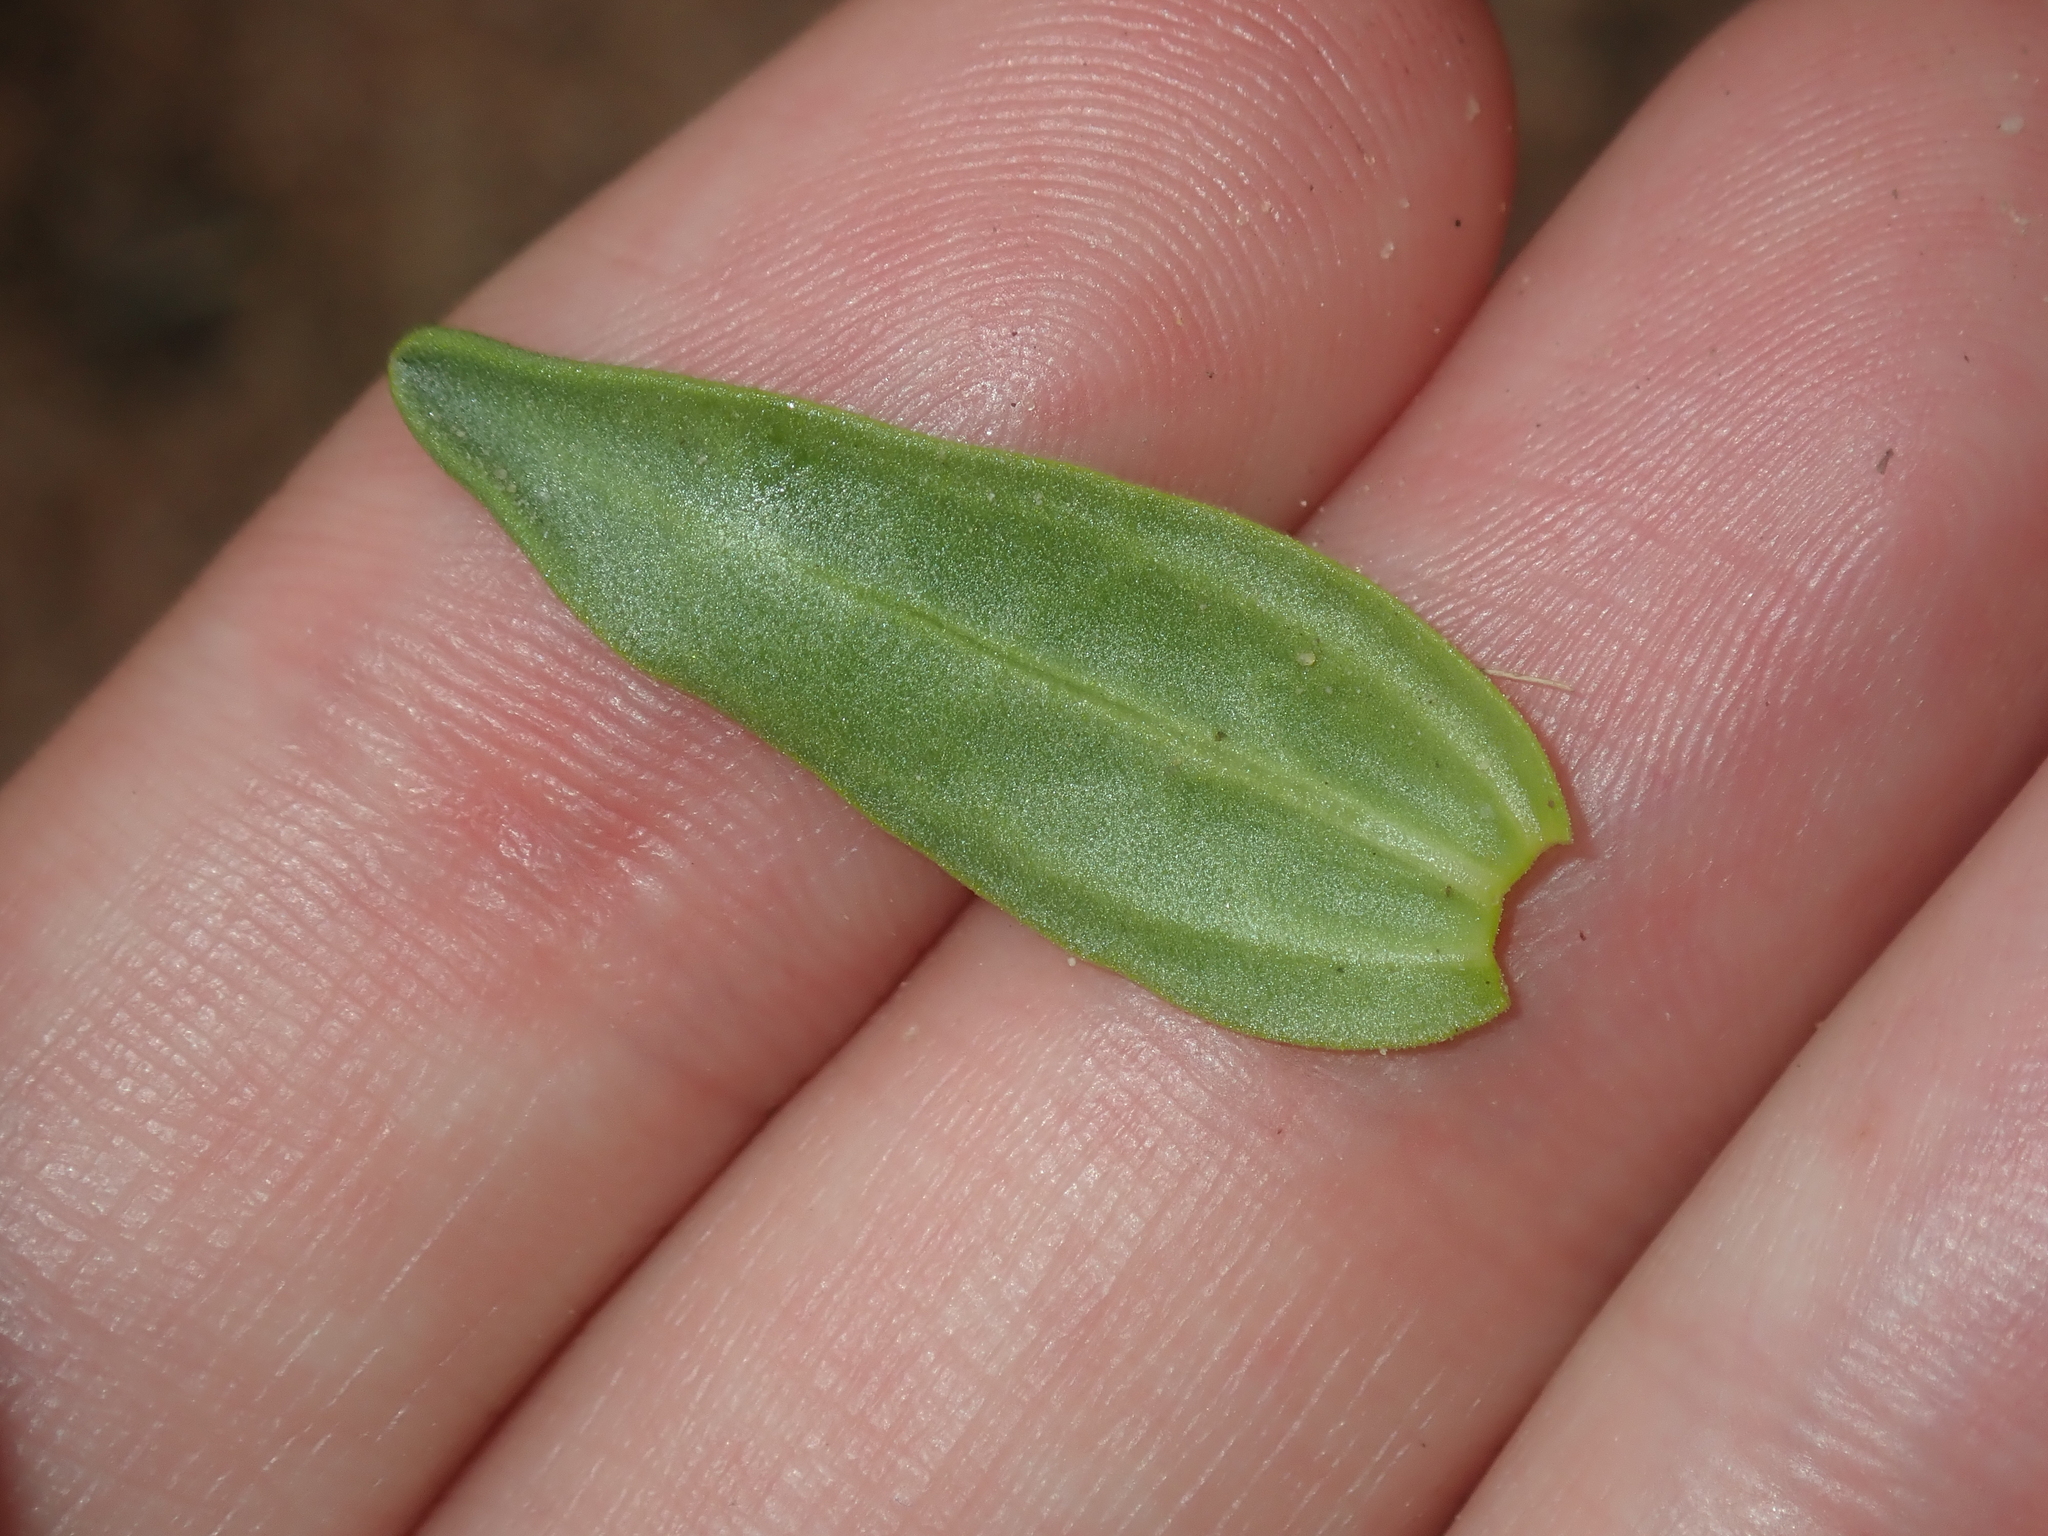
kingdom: Plantae
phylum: Tracheophyta
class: Magnoliopsida
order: Asterales
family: Asteraceae
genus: Siemssenia
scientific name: Siemssenia capillaris
